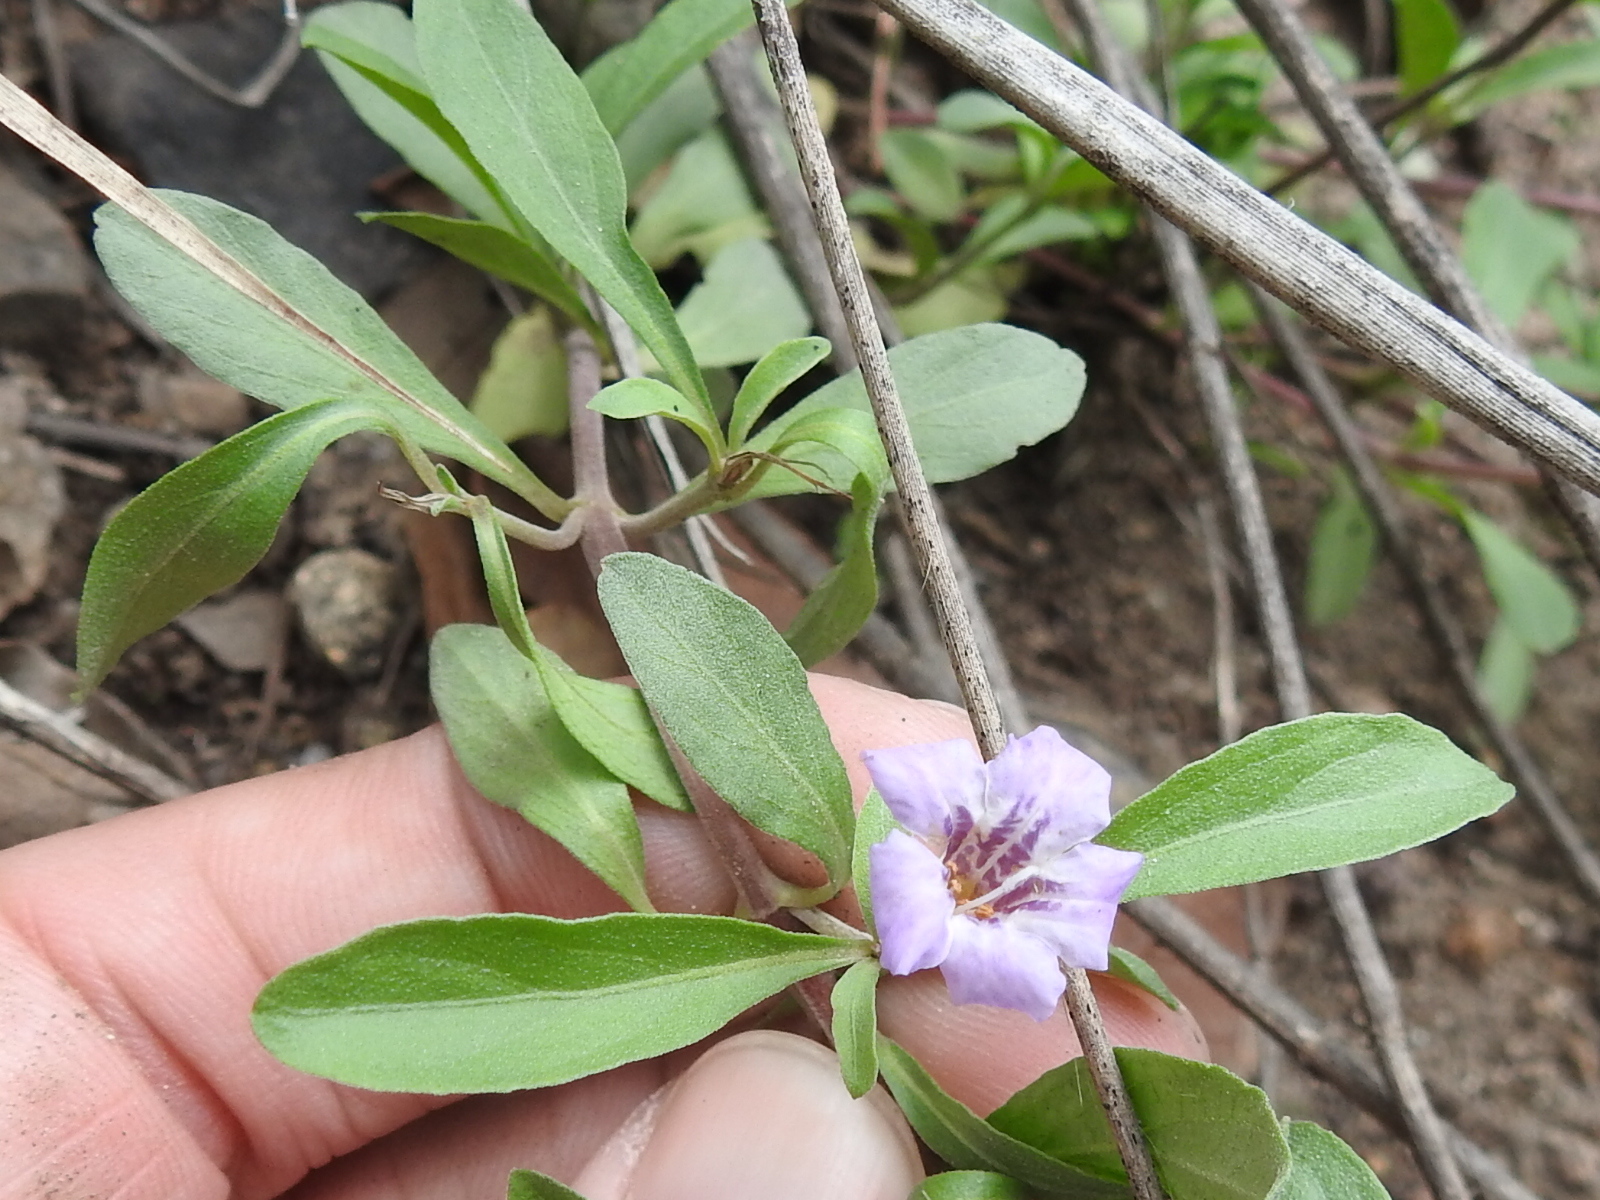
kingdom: Plantae
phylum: Tracheophyta
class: Magnoliopsida
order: Lamiales
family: Acanthaceae
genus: Dyschoriste
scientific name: Dyschoriste schiedeana
